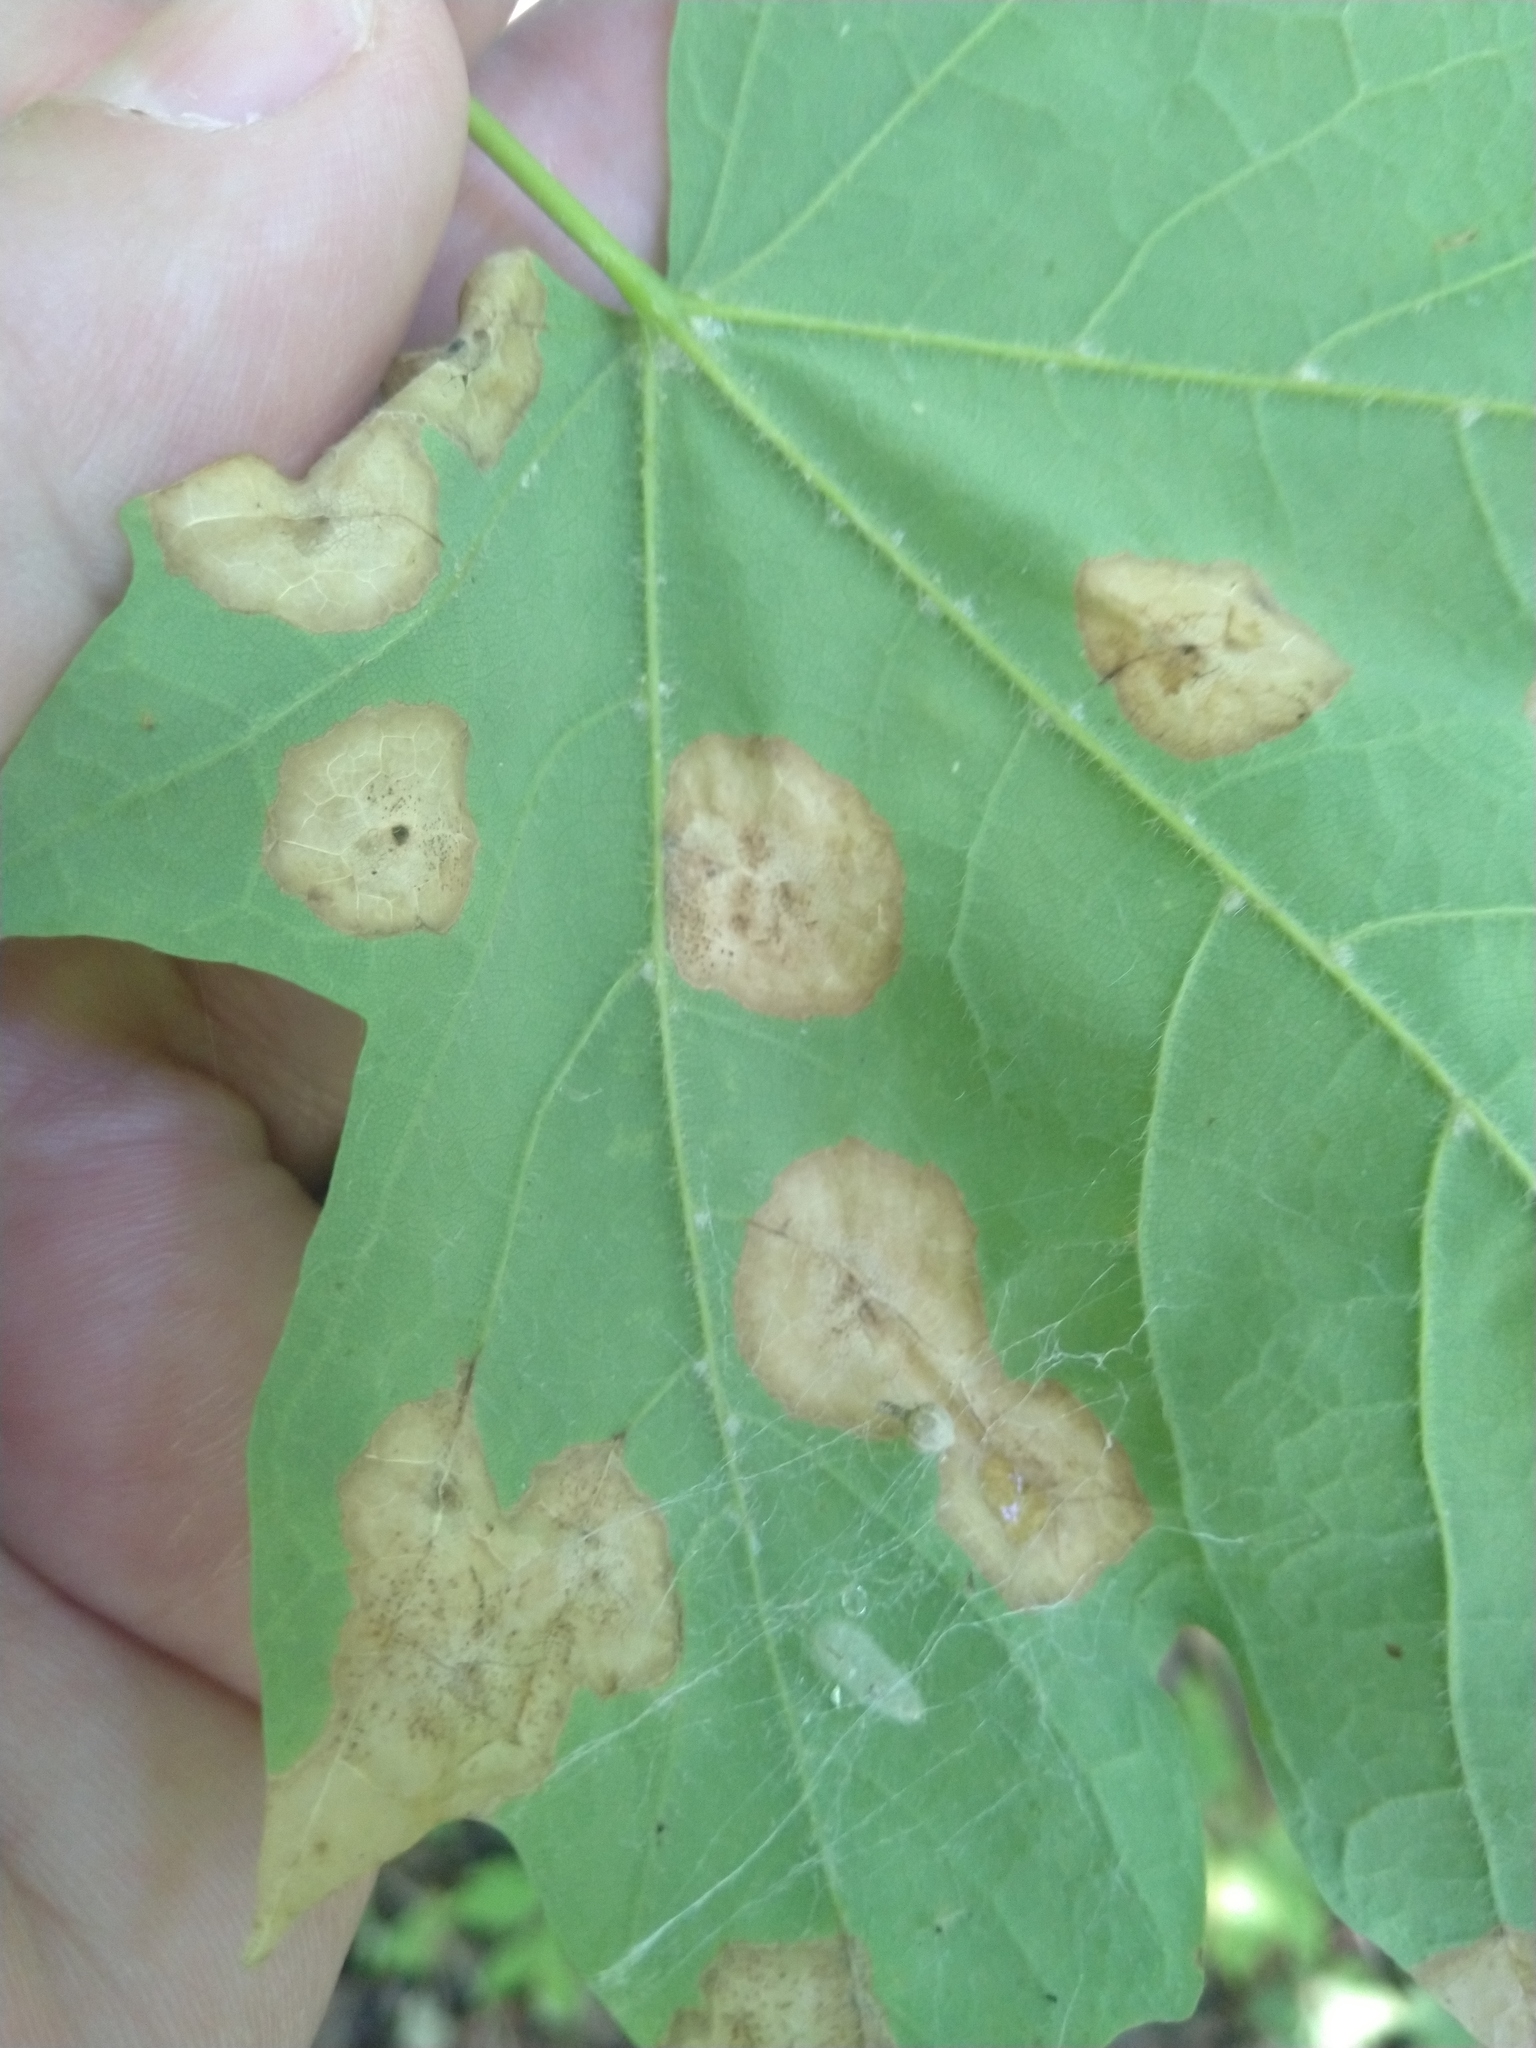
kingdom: Animalia
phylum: Arthropoda
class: Insecta
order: Diptera
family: Cecidomyiidae
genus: Acericecis
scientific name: Acericecis ocellaris
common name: Ocellate gall midge
